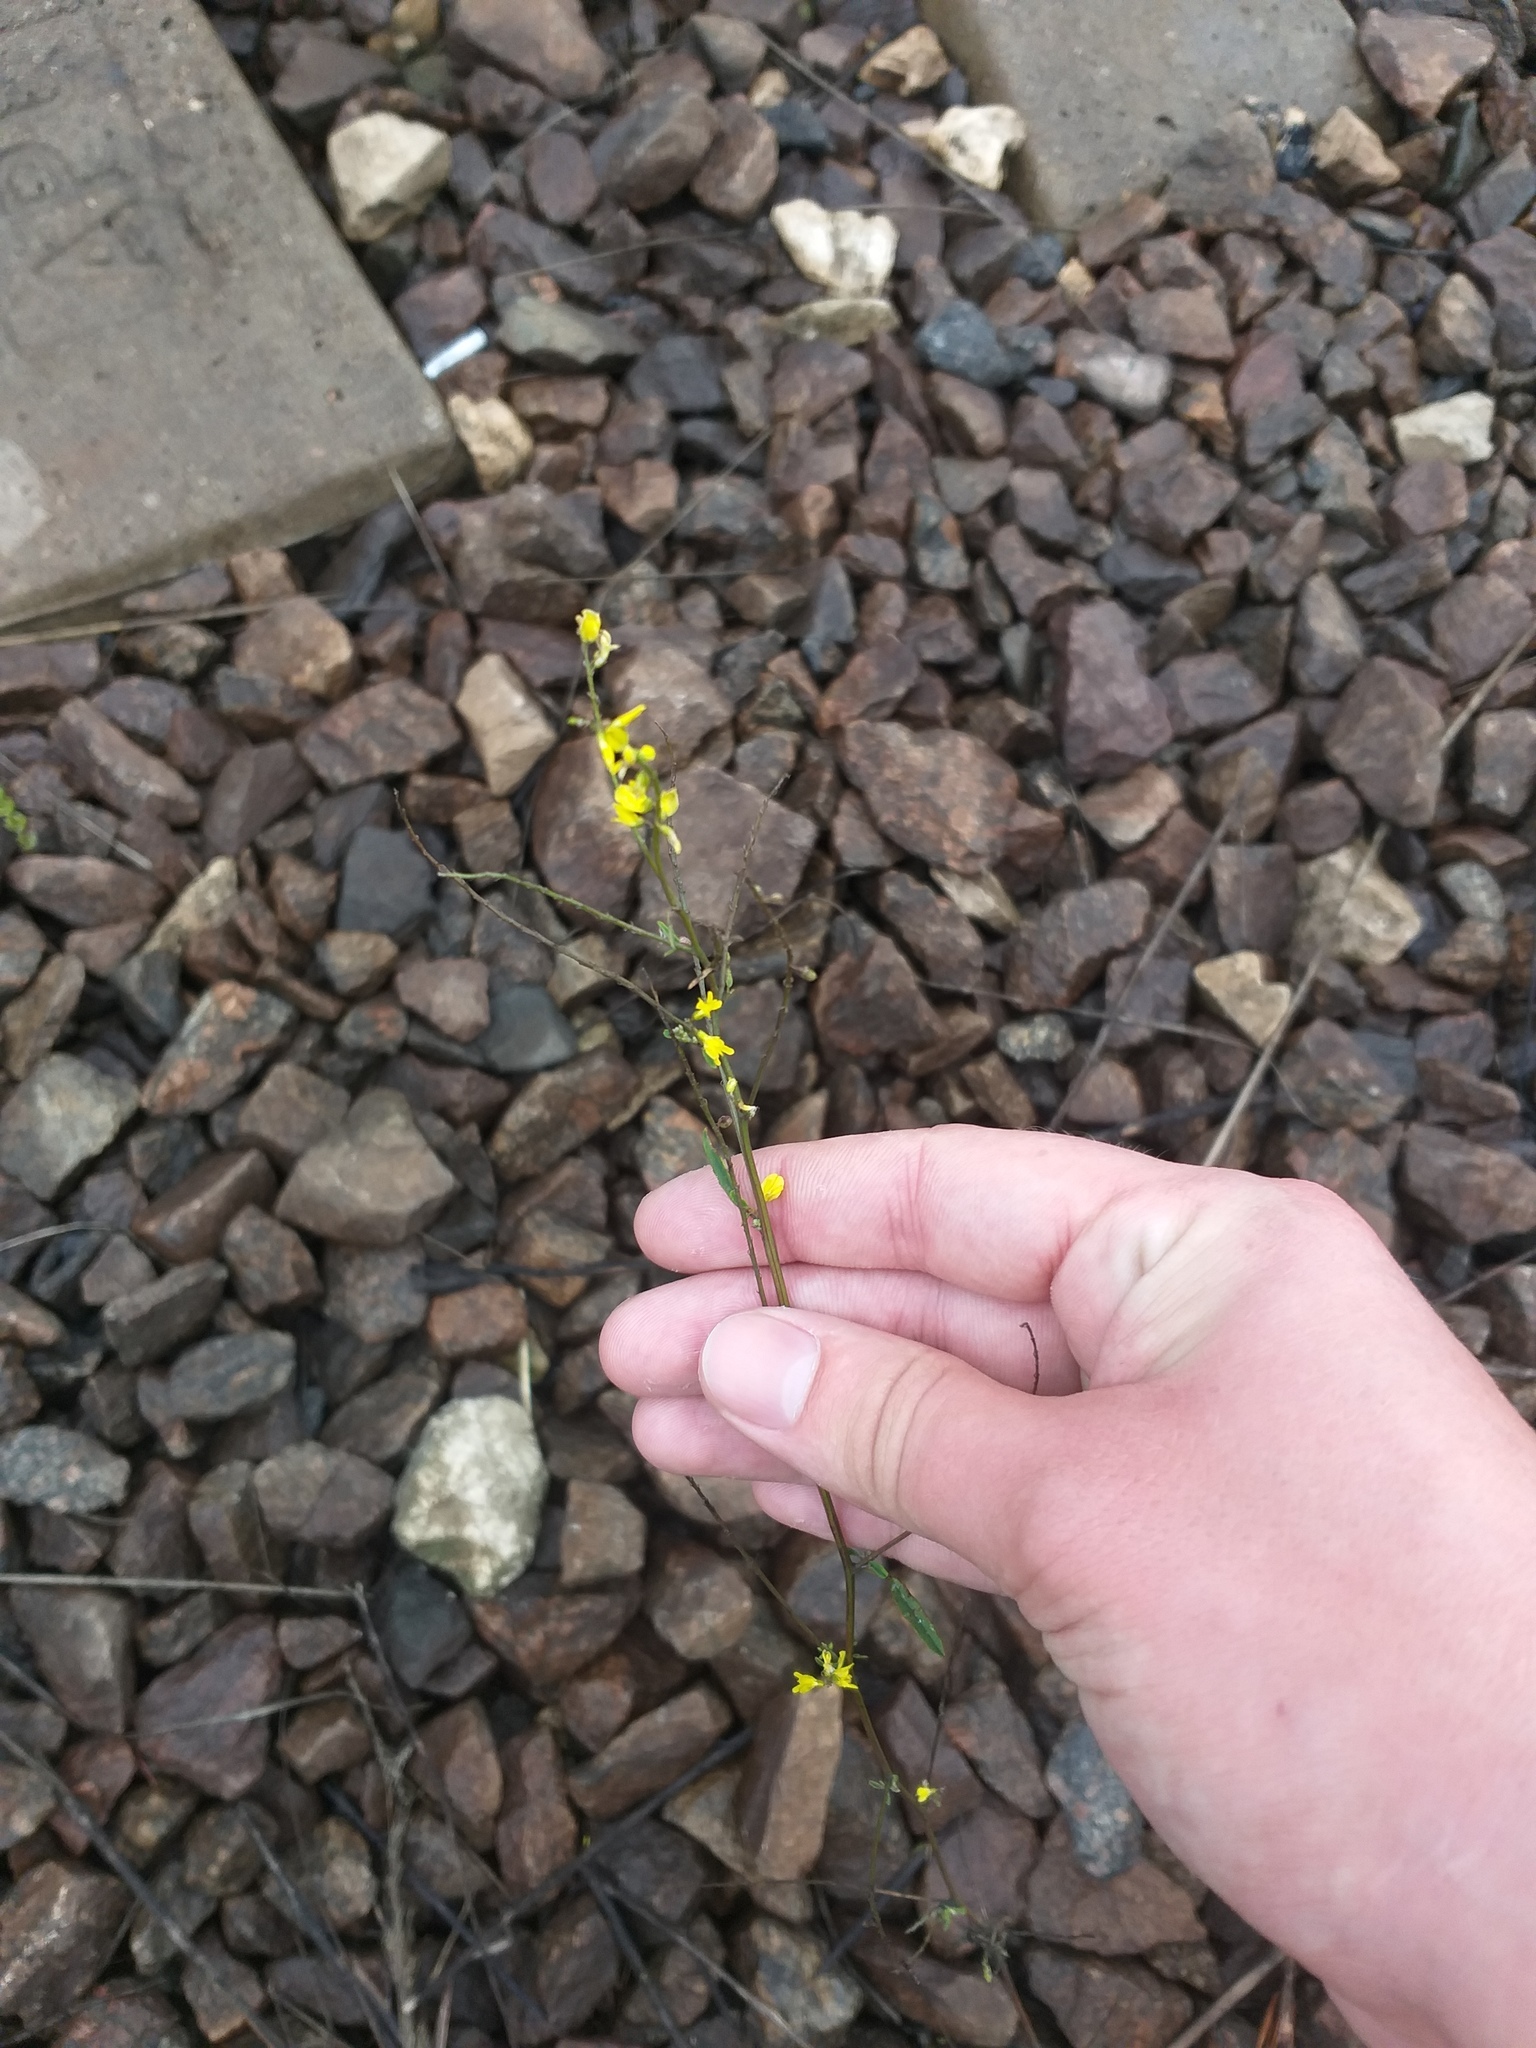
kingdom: Plantae
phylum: Tracheophyta
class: Magnoliopsida
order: Fabales
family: Fabaceae
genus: Melilotus
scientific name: Melilotus officinalis
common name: Sweetclover
